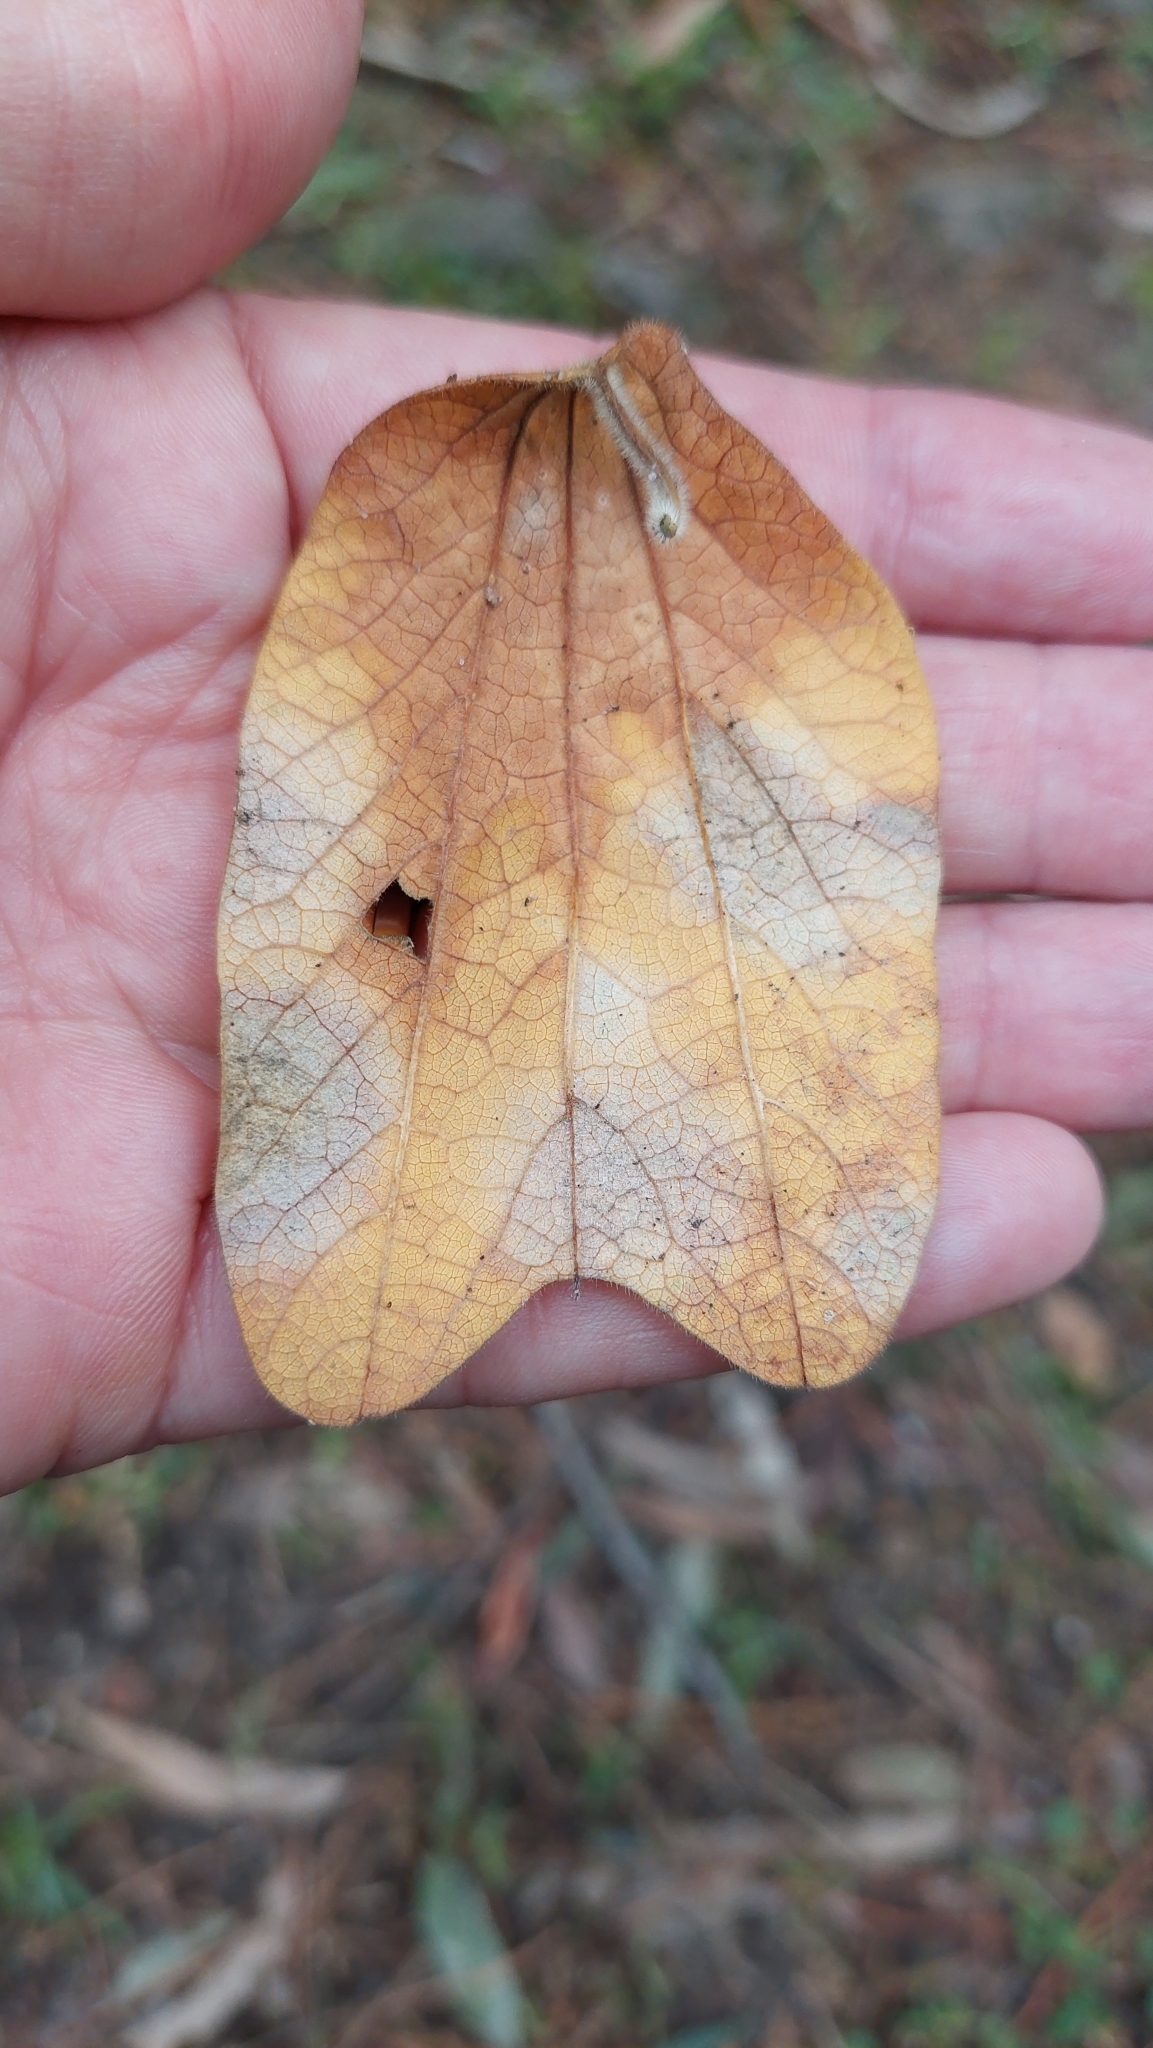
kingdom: Plantae
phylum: Tracheophyta
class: Magnoliopsida
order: Malpighiales
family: Passifloraceae
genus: Passiflora
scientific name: Passiflora bogotensis
